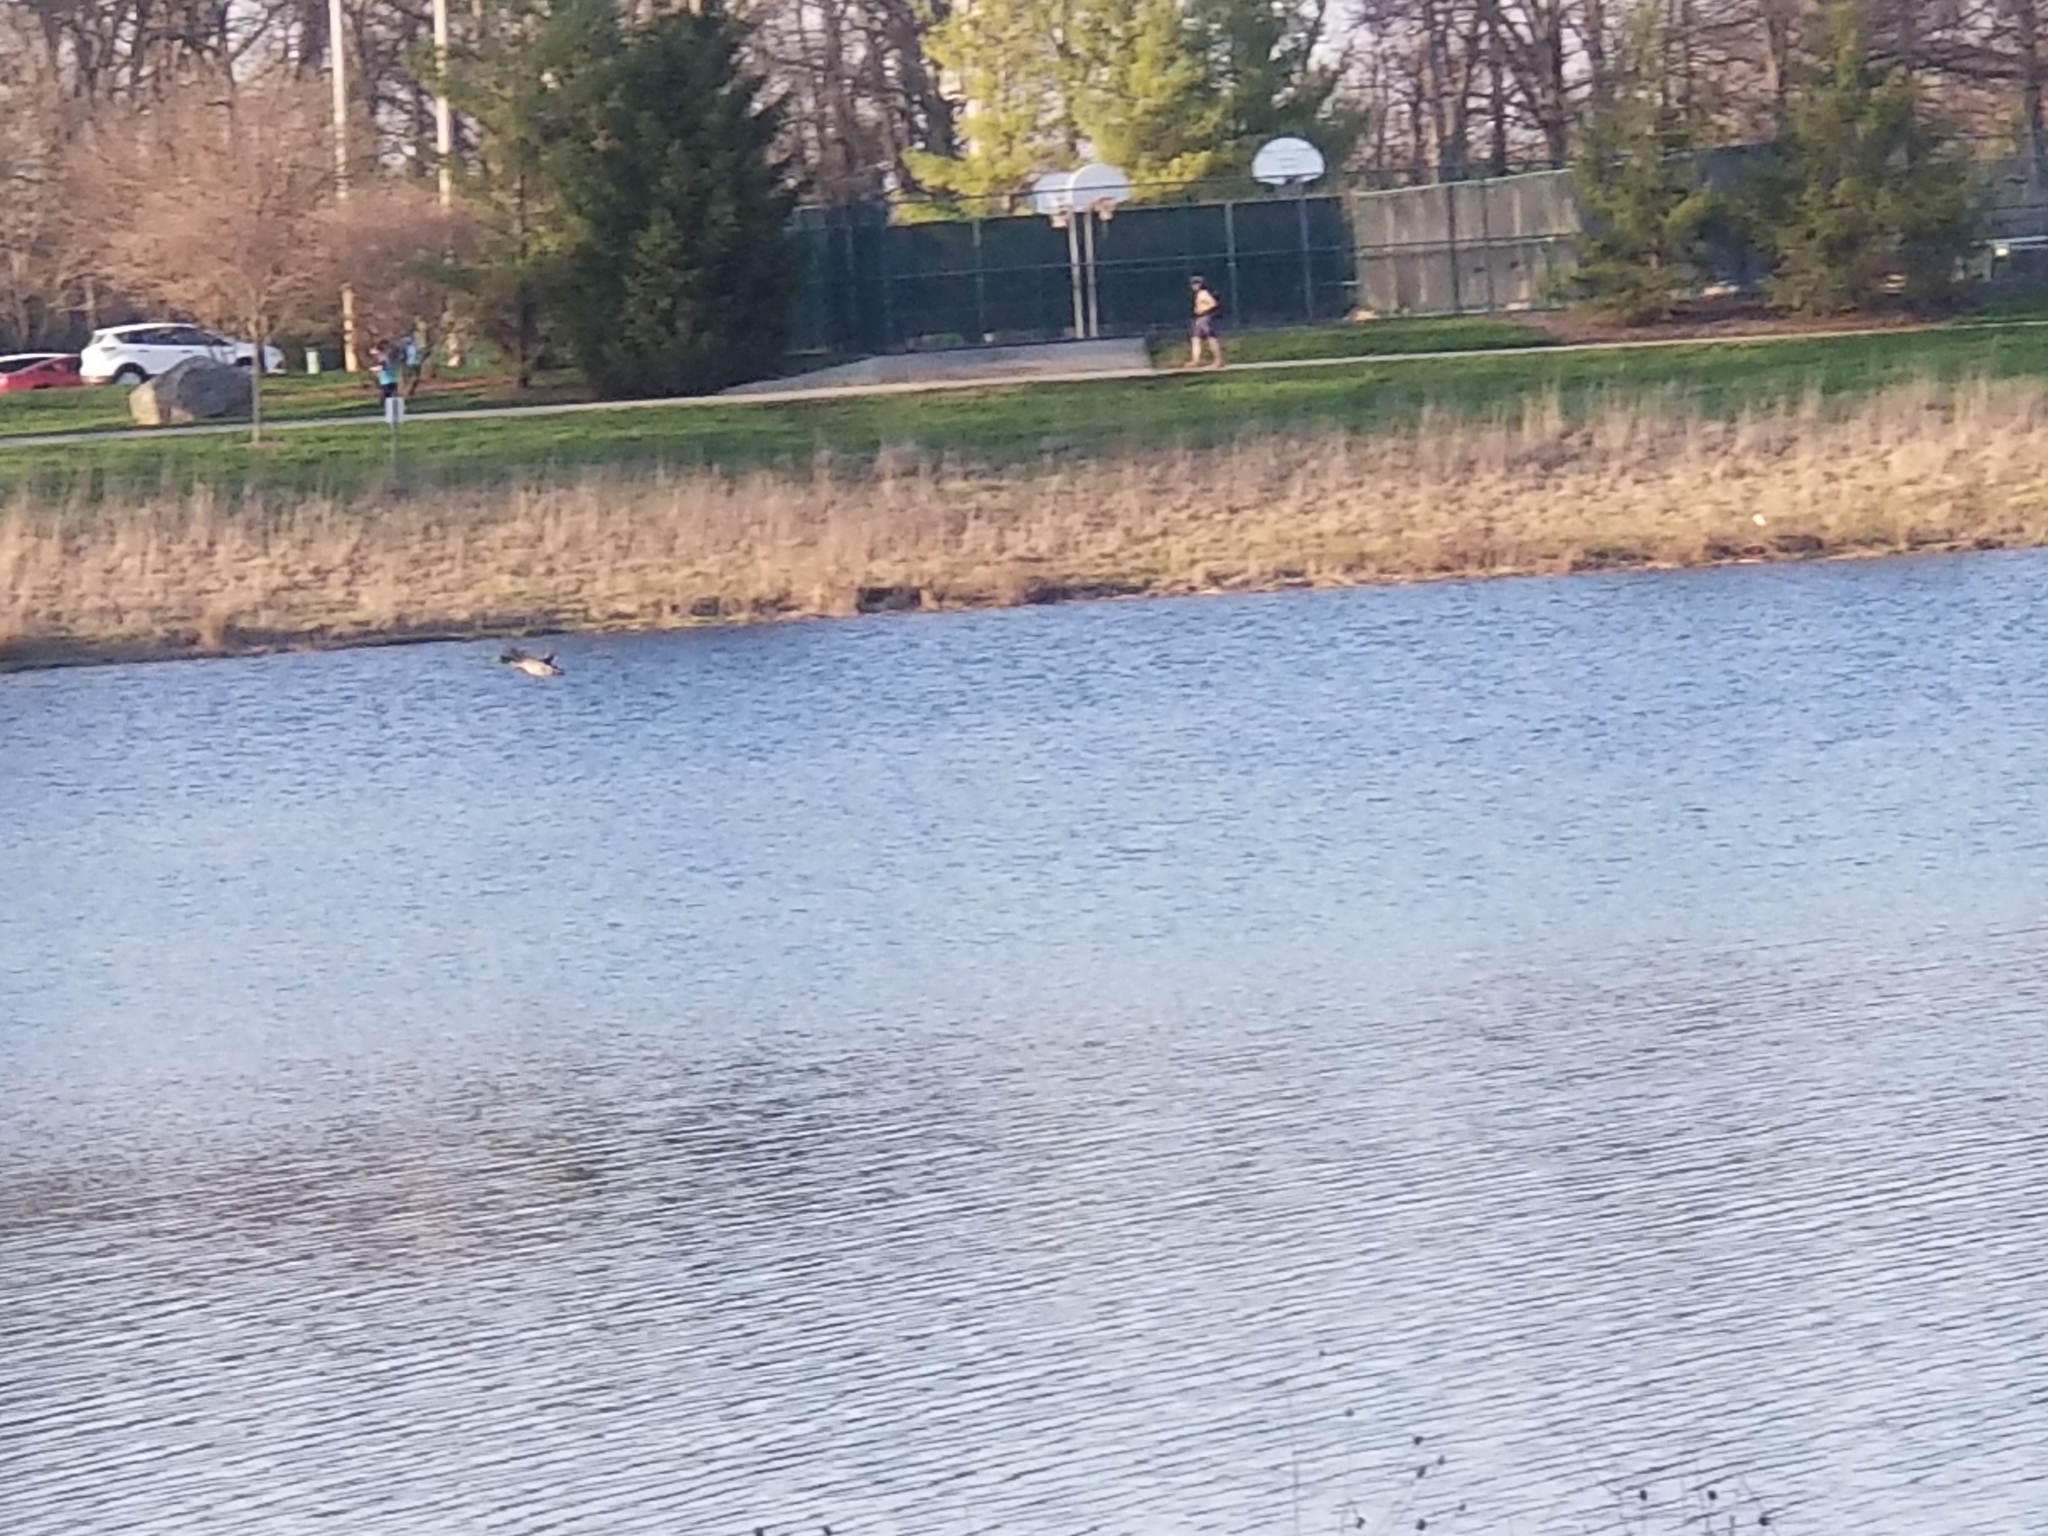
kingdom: Animalia
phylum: Chordata
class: Aves
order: Anseriformes
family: Anatidae
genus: Anas
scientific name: Anas platyrhynchos
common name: Mallard
